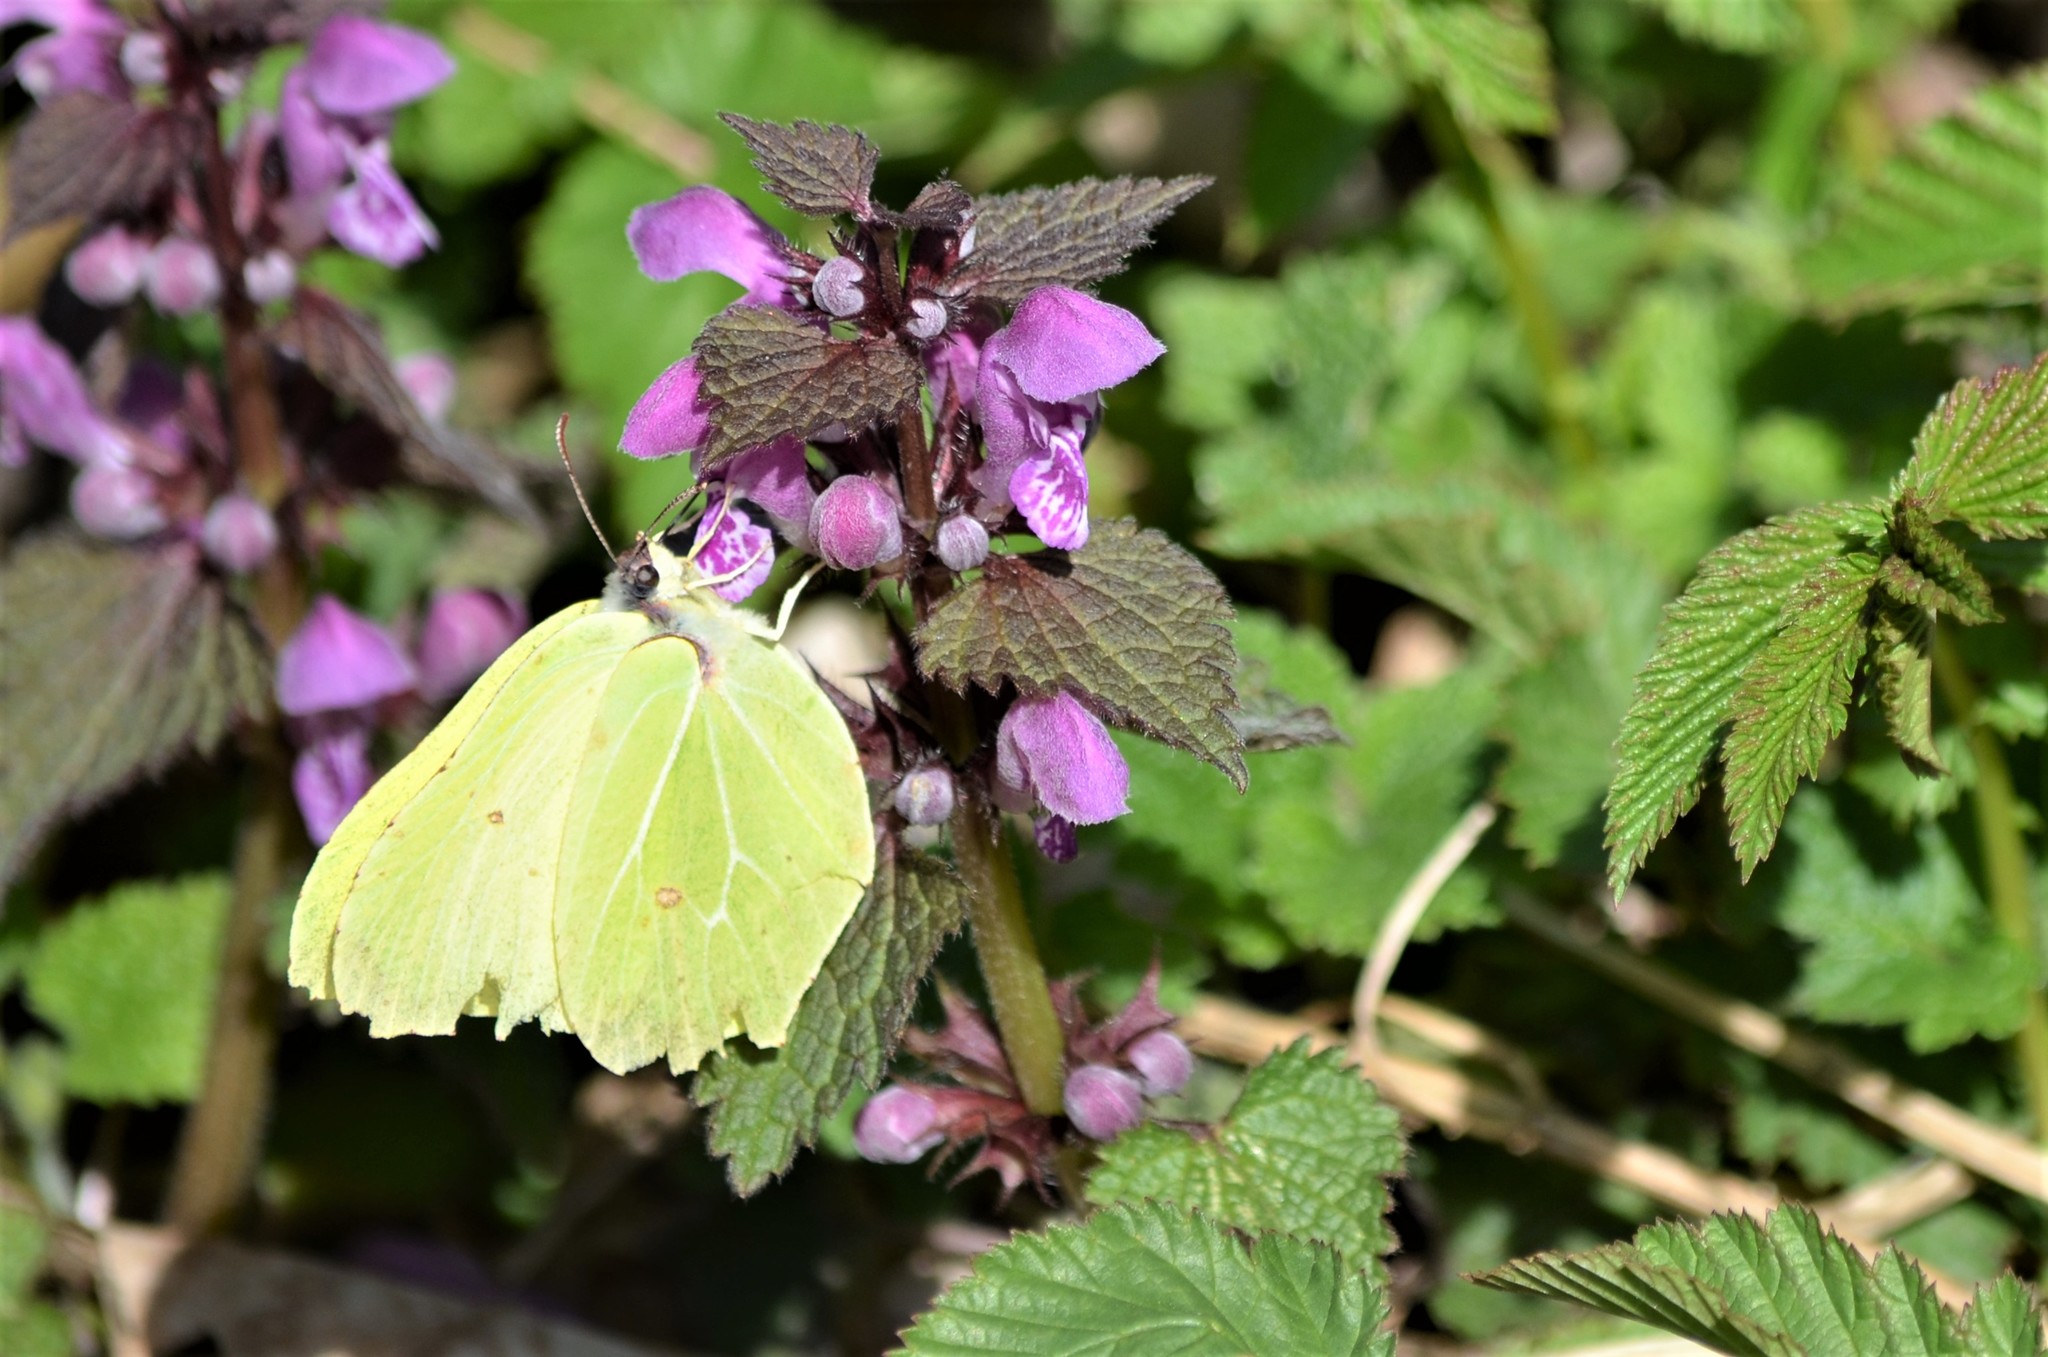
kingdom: Animalia
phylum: Arthropoda
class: Insecta
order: Lepidoptera
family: Pieridae
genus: Gonepteryx
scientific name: Gonepteryx rhamni
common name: Brimstone
